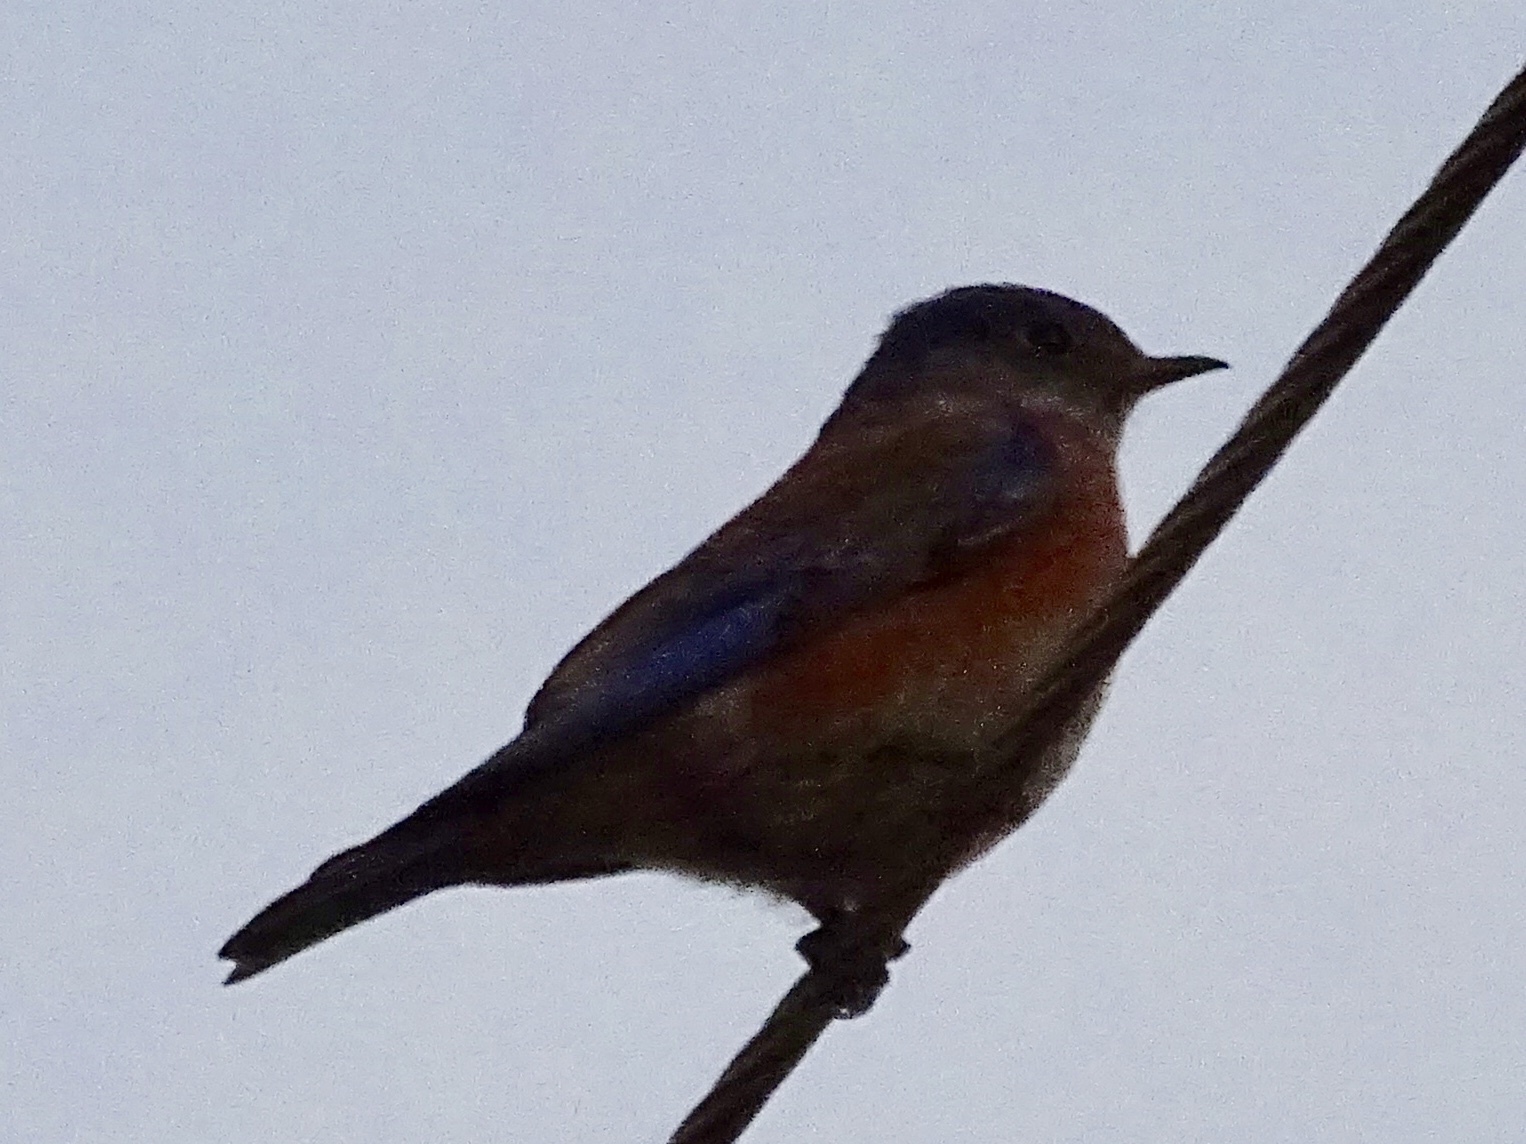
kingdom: Animalia
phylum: Chordata
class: Aves
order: Passeriformes
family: Turdidae
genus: Sialia
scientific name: Sialia mexicana
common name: Western bluebird
